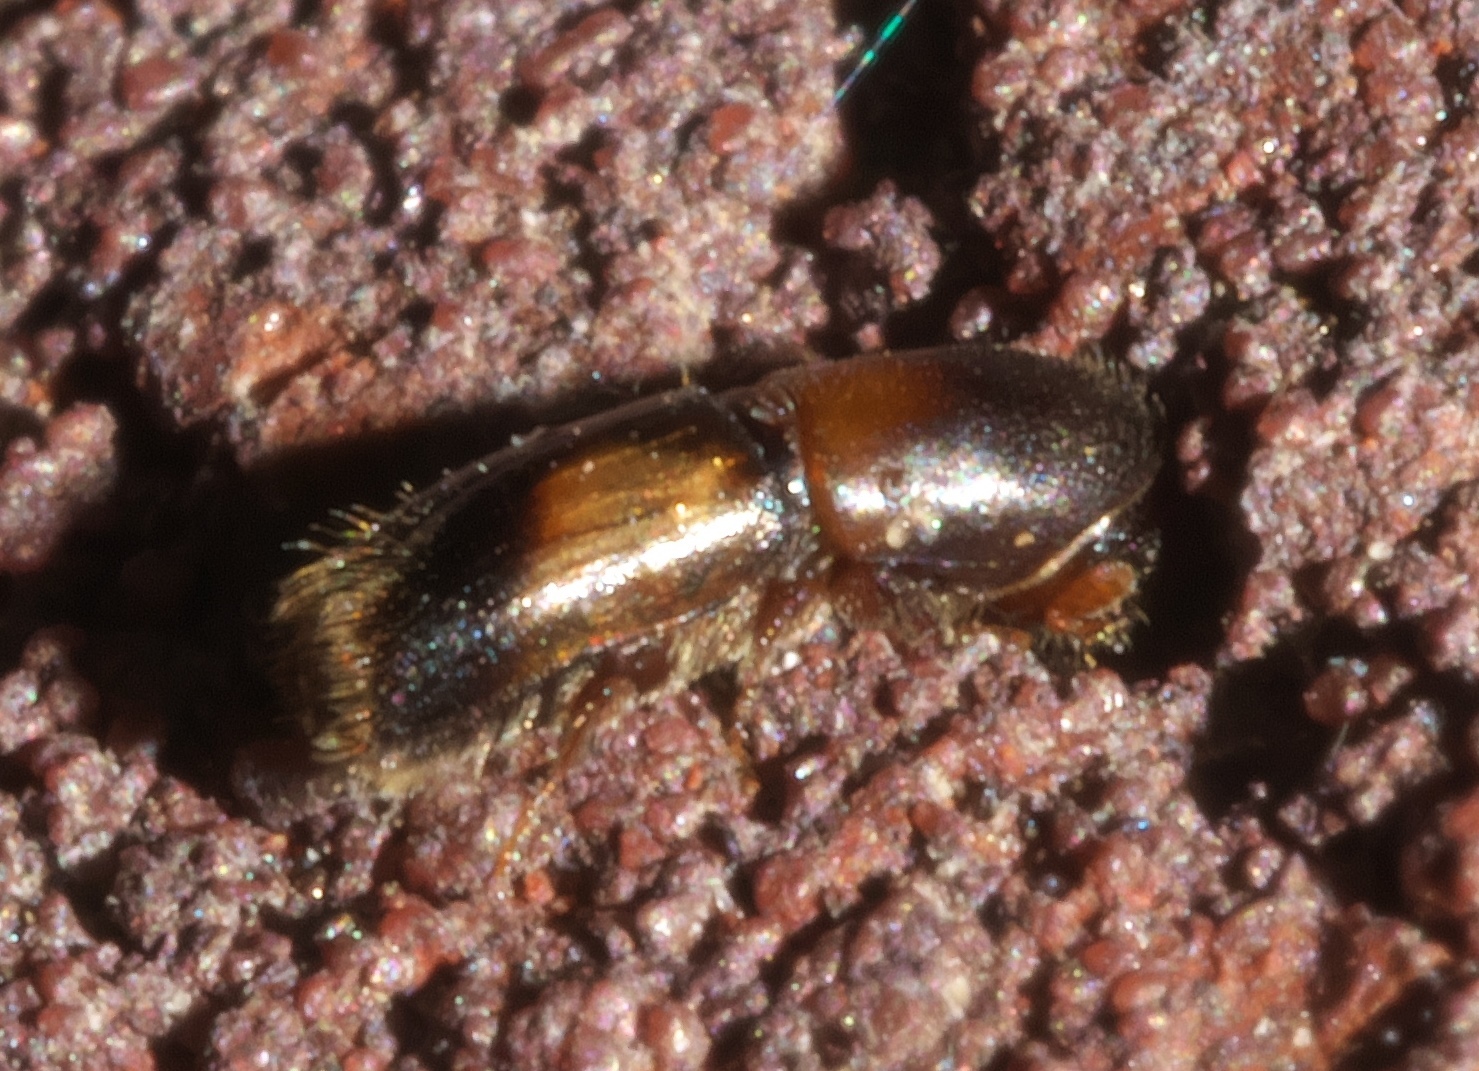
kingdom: Animalia
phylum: Arthropoda
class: Insecta
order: Coleoptera
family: Curculionidae
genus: Monarthrum
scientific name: Monarthrum fasciatum
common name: Yellow-banded timber beetle
